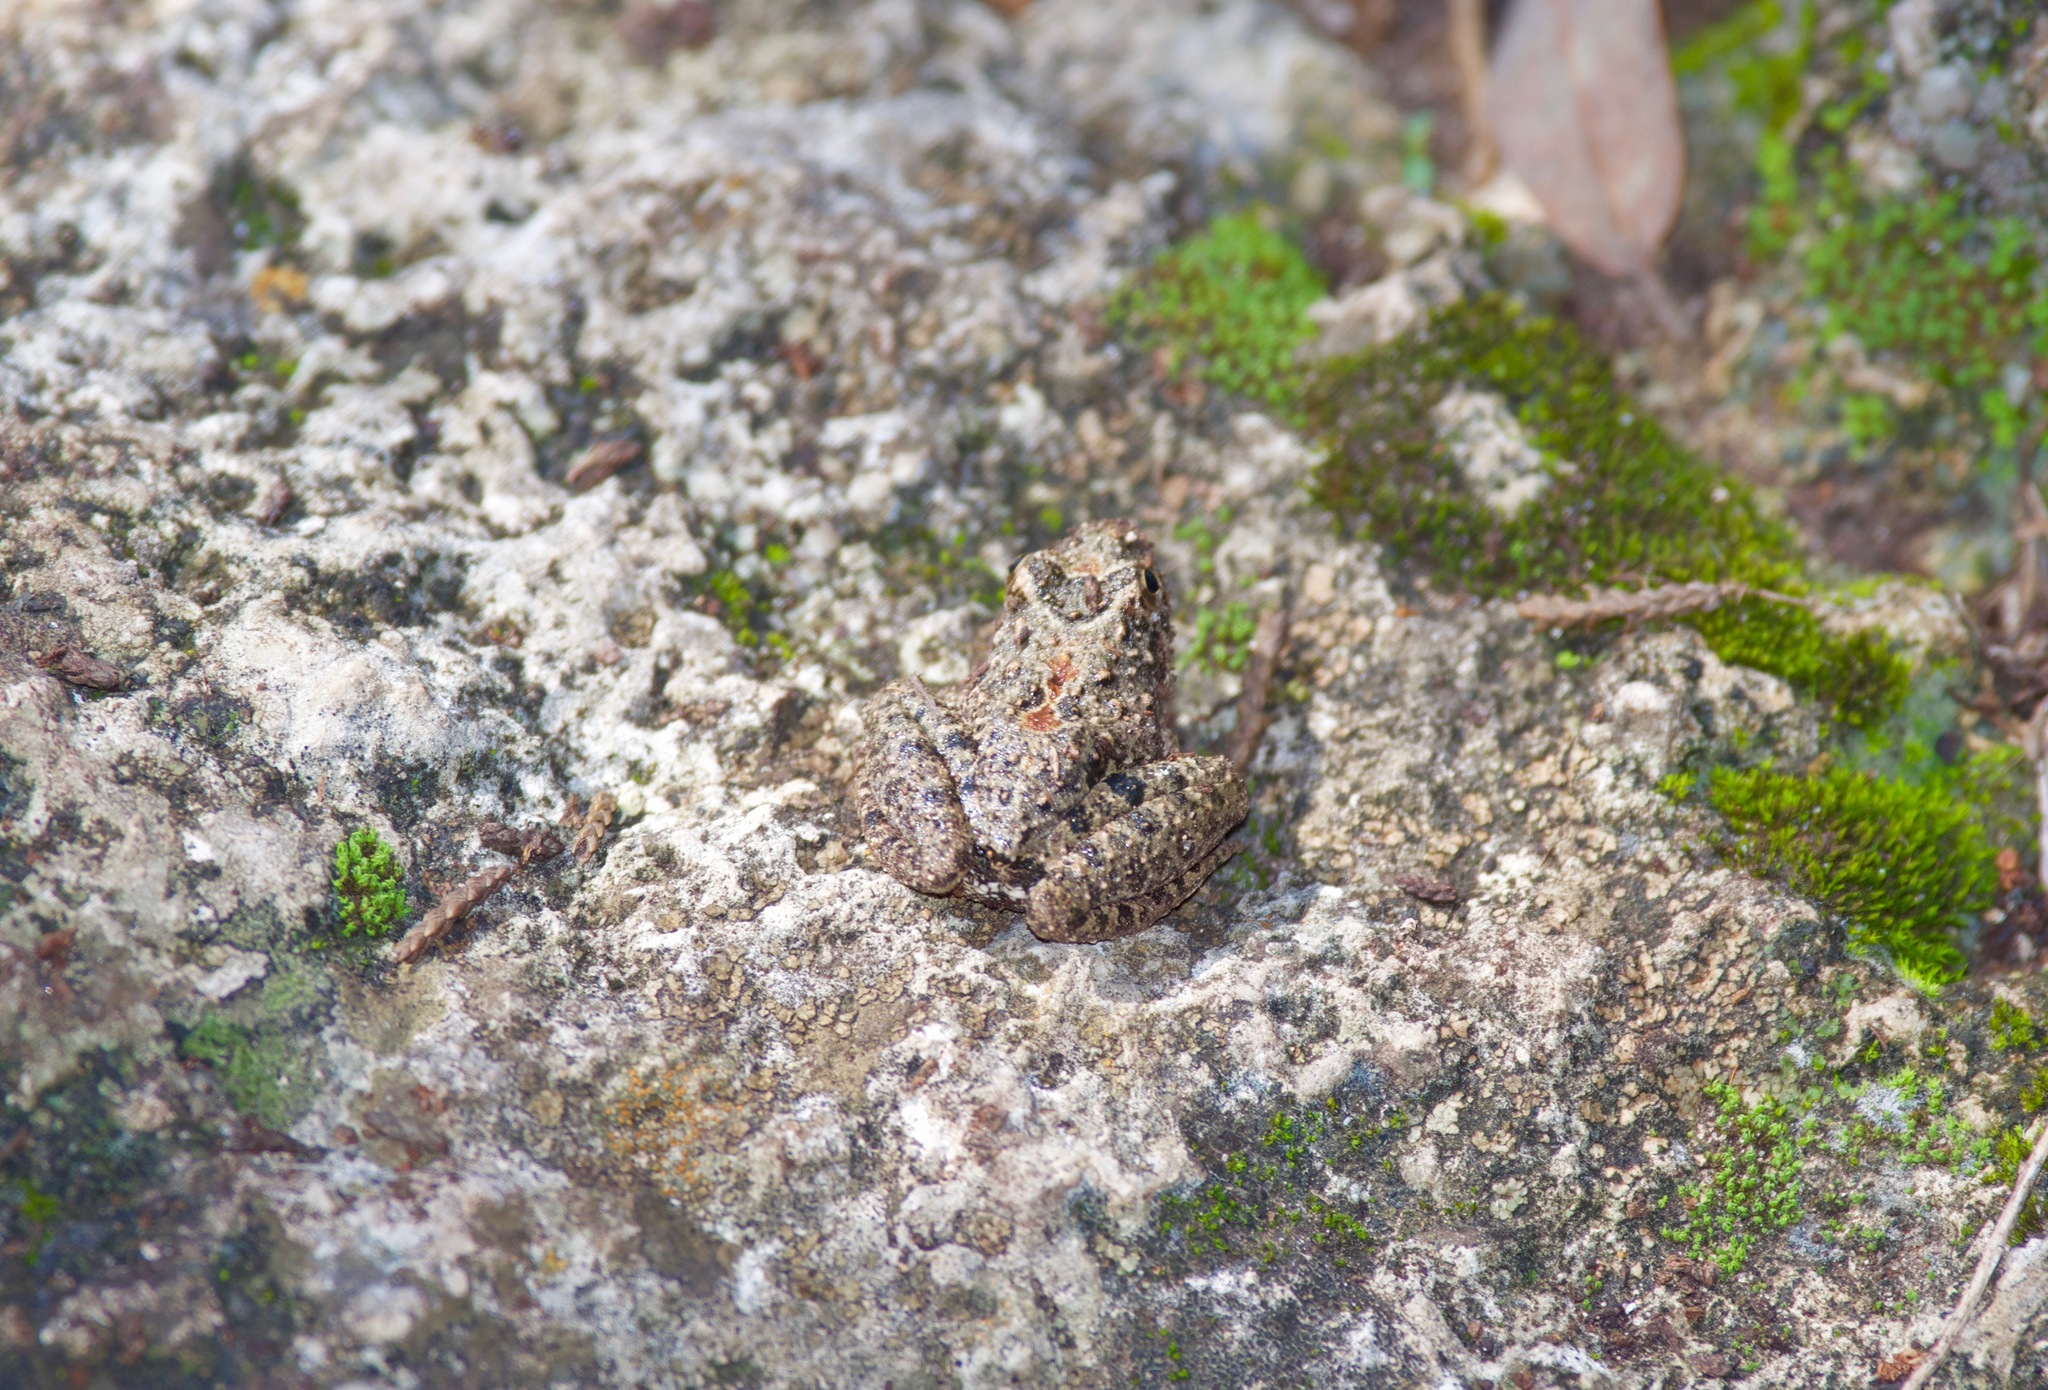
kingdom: Animalia
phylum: Chordata
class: Amphibia
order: Anura
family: Hylidae
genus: Acris
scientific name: Acris blanchardi
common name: Blanchard's cricket frog
